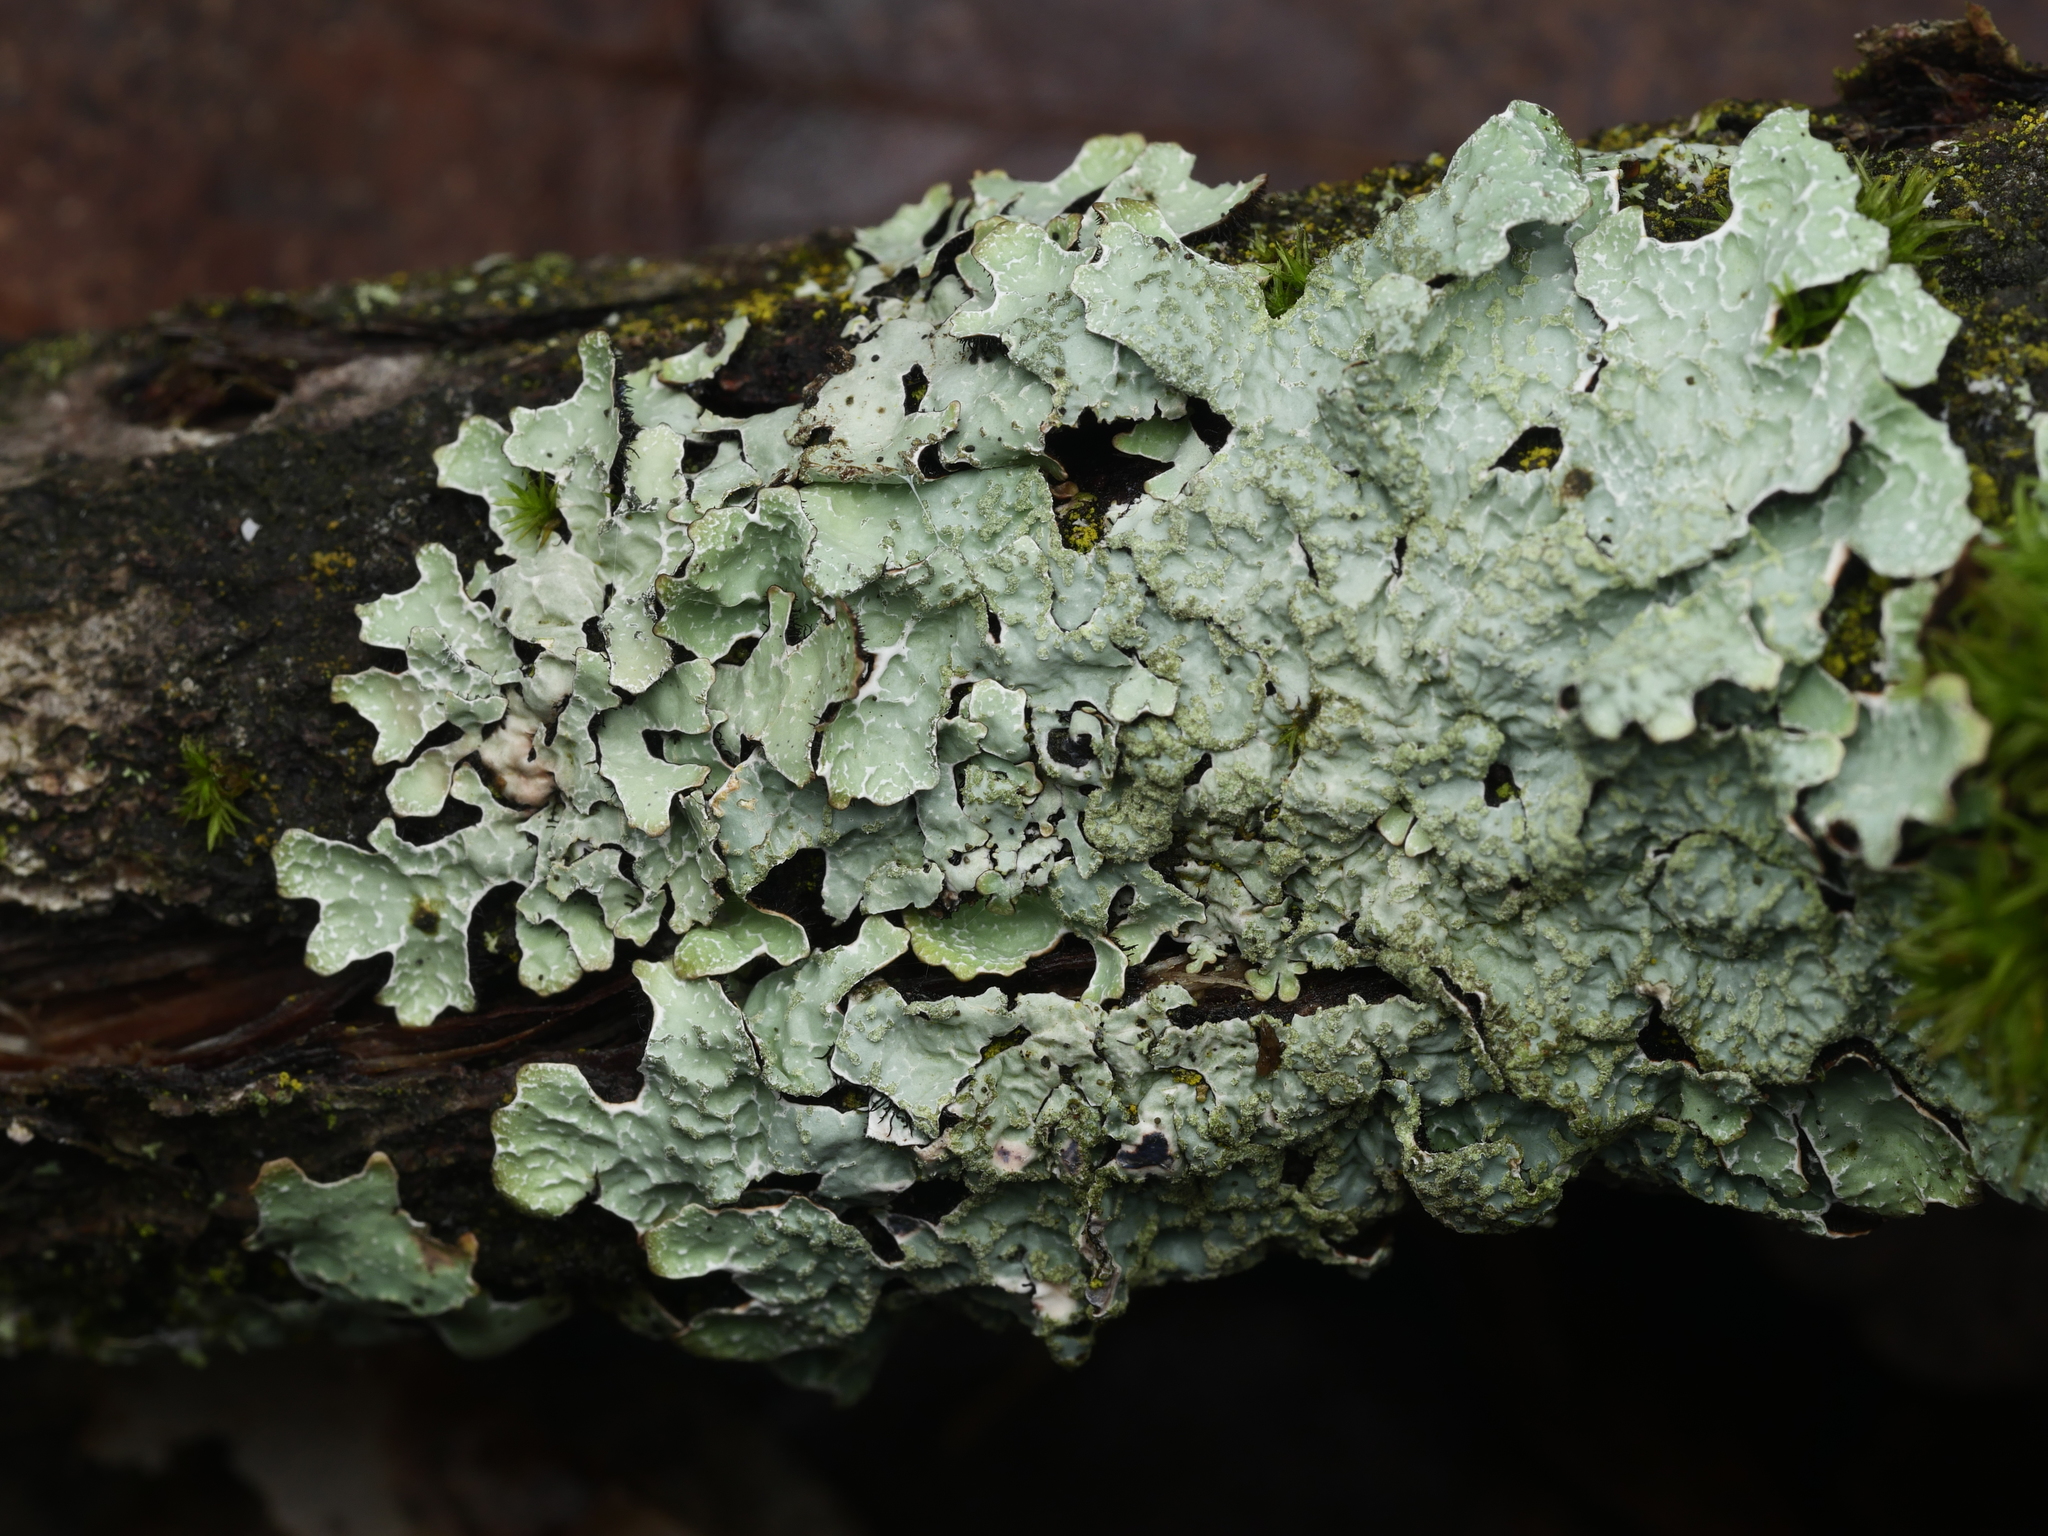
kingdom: Fungi
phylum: Ascomycota
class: Lecanoromycetes
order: Lecanorales
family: Parmeliaceae
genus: Parmelia
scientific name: Parmelia sulcata
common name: Netted shield lichen
